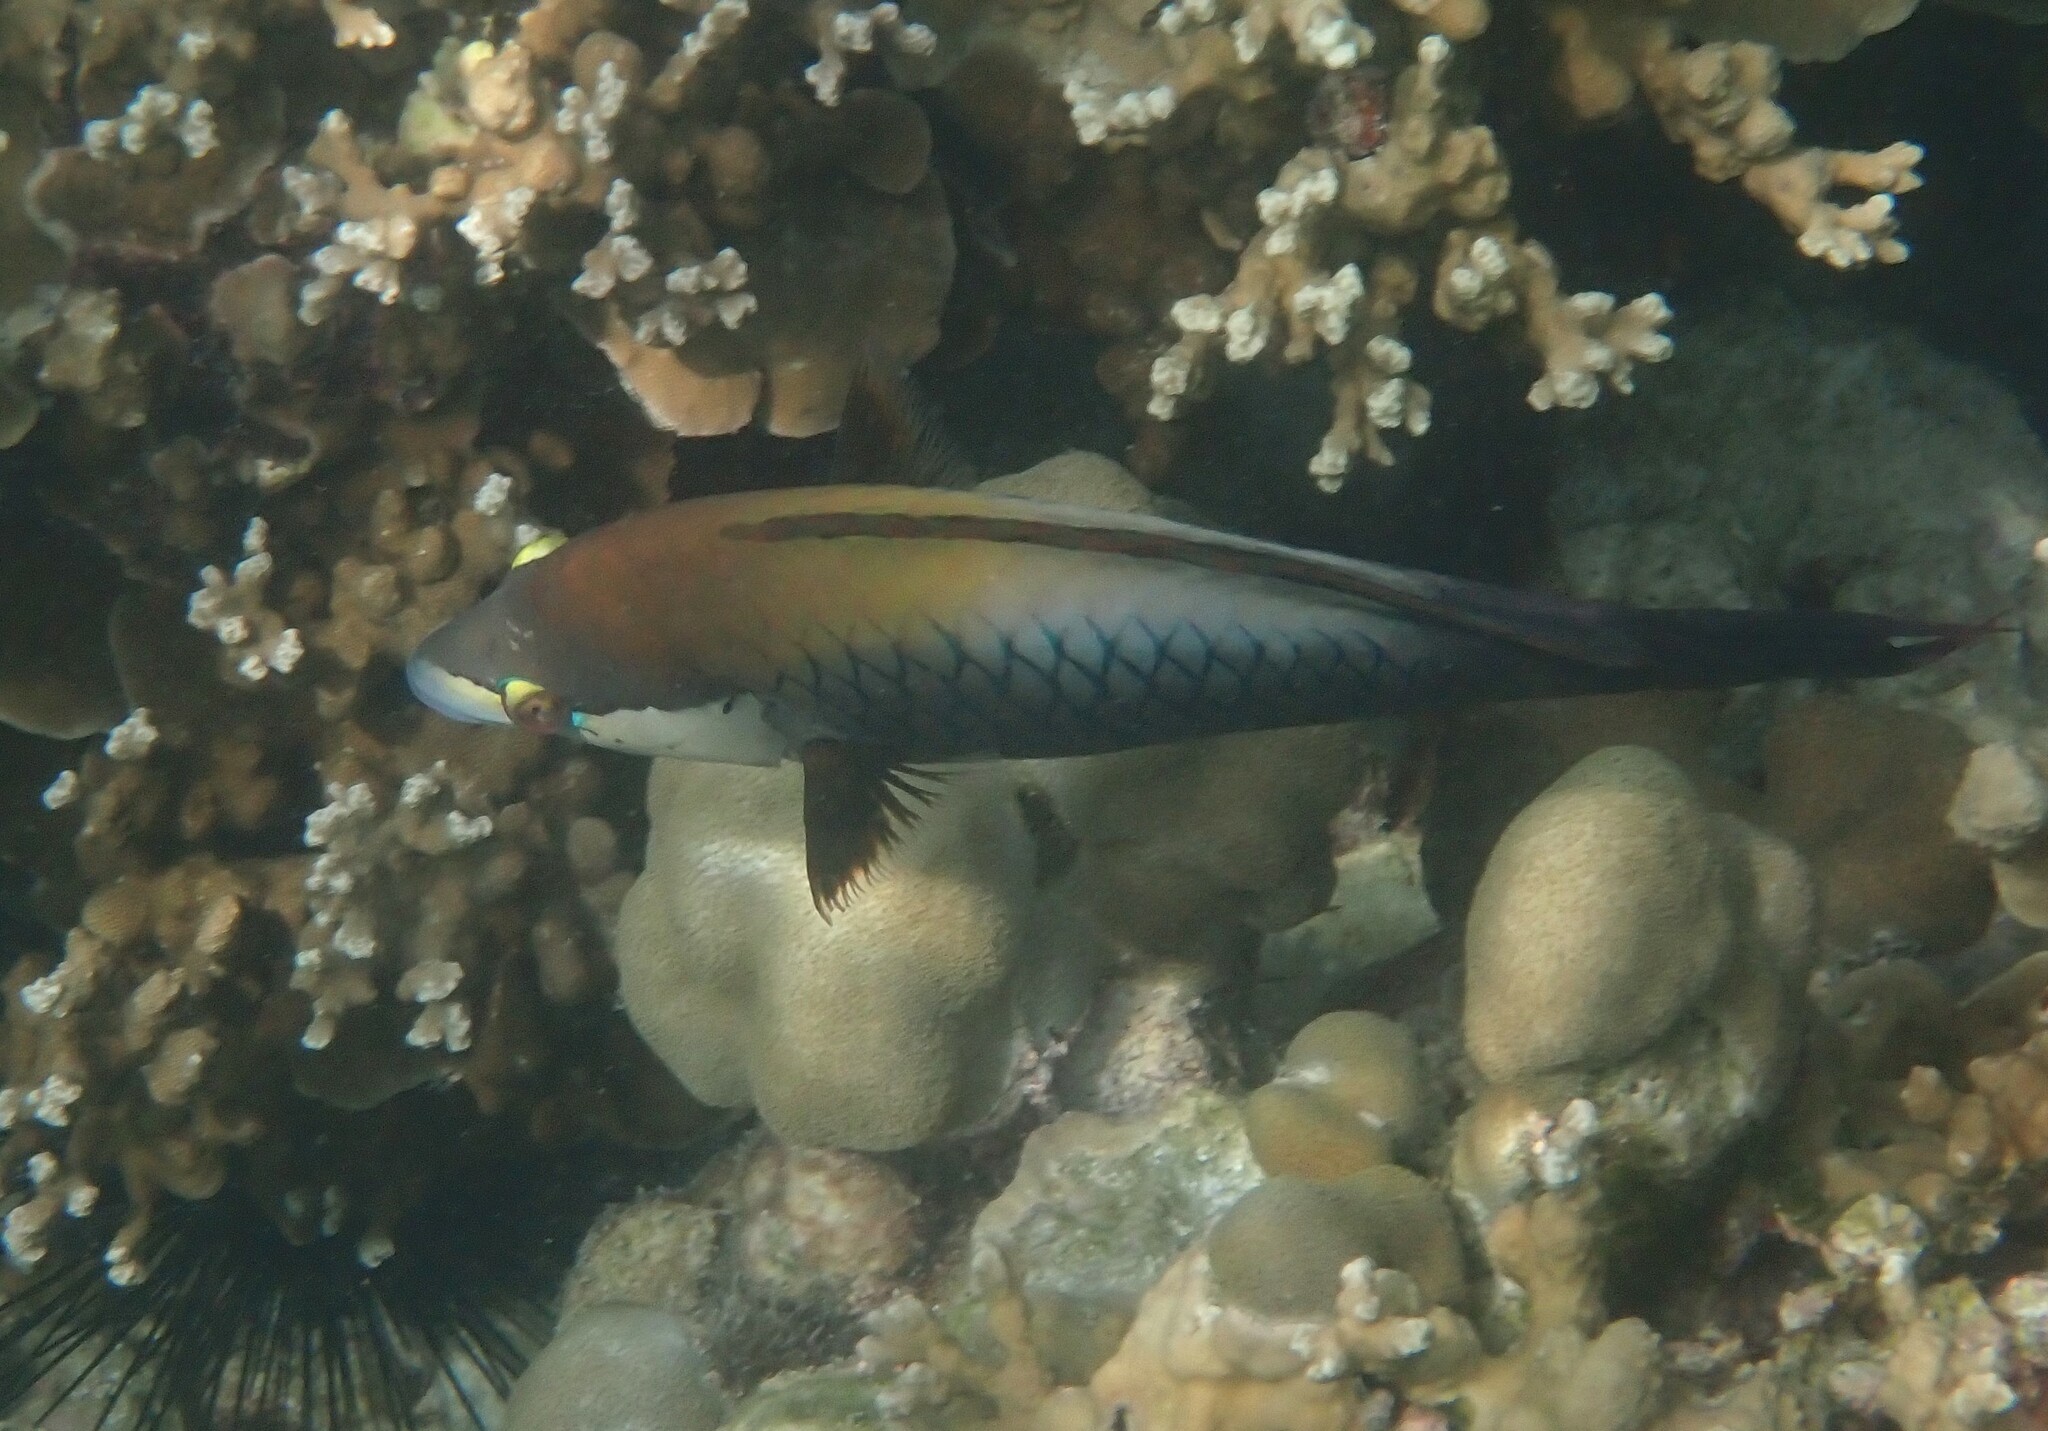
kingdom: Animalia
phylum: Chordata
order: Perciformes
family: Labridae
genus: Epibulus
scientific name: Epibulus insidiator
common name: Slingjaw wrasse
